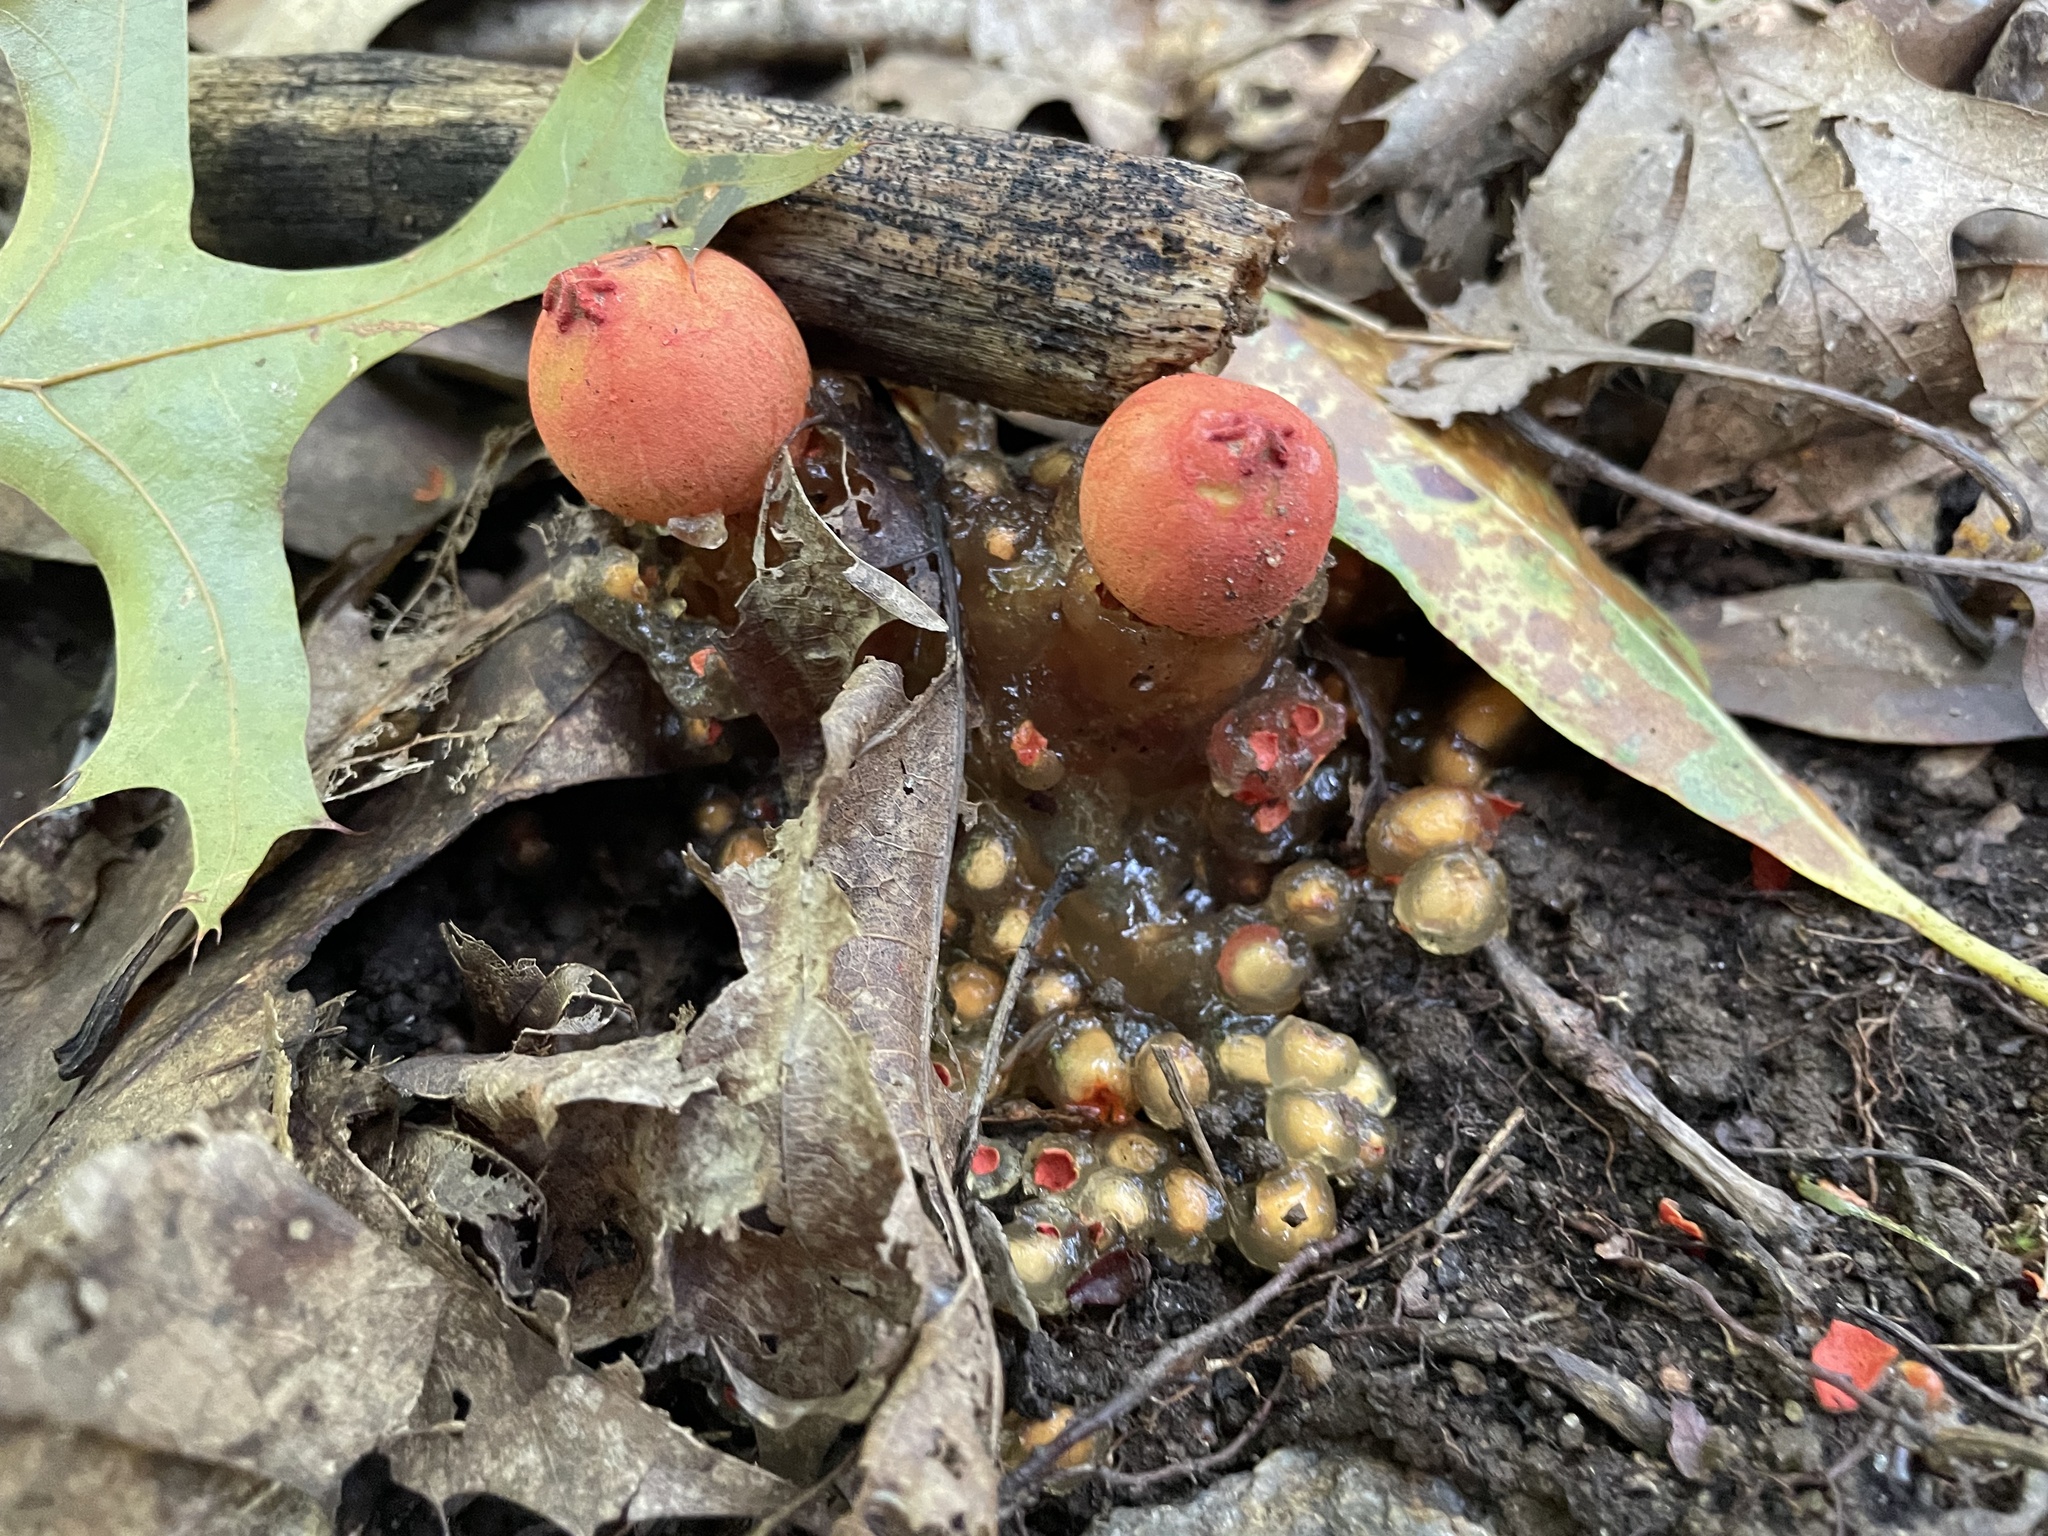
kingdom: Fungi
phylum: Basidiomycota
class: Agaricomycetes
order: Boletales
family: Calostomataceae
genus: Calostoma
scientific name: Calostoma cinnabarinum
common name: Stalked puffball-in-aspic
